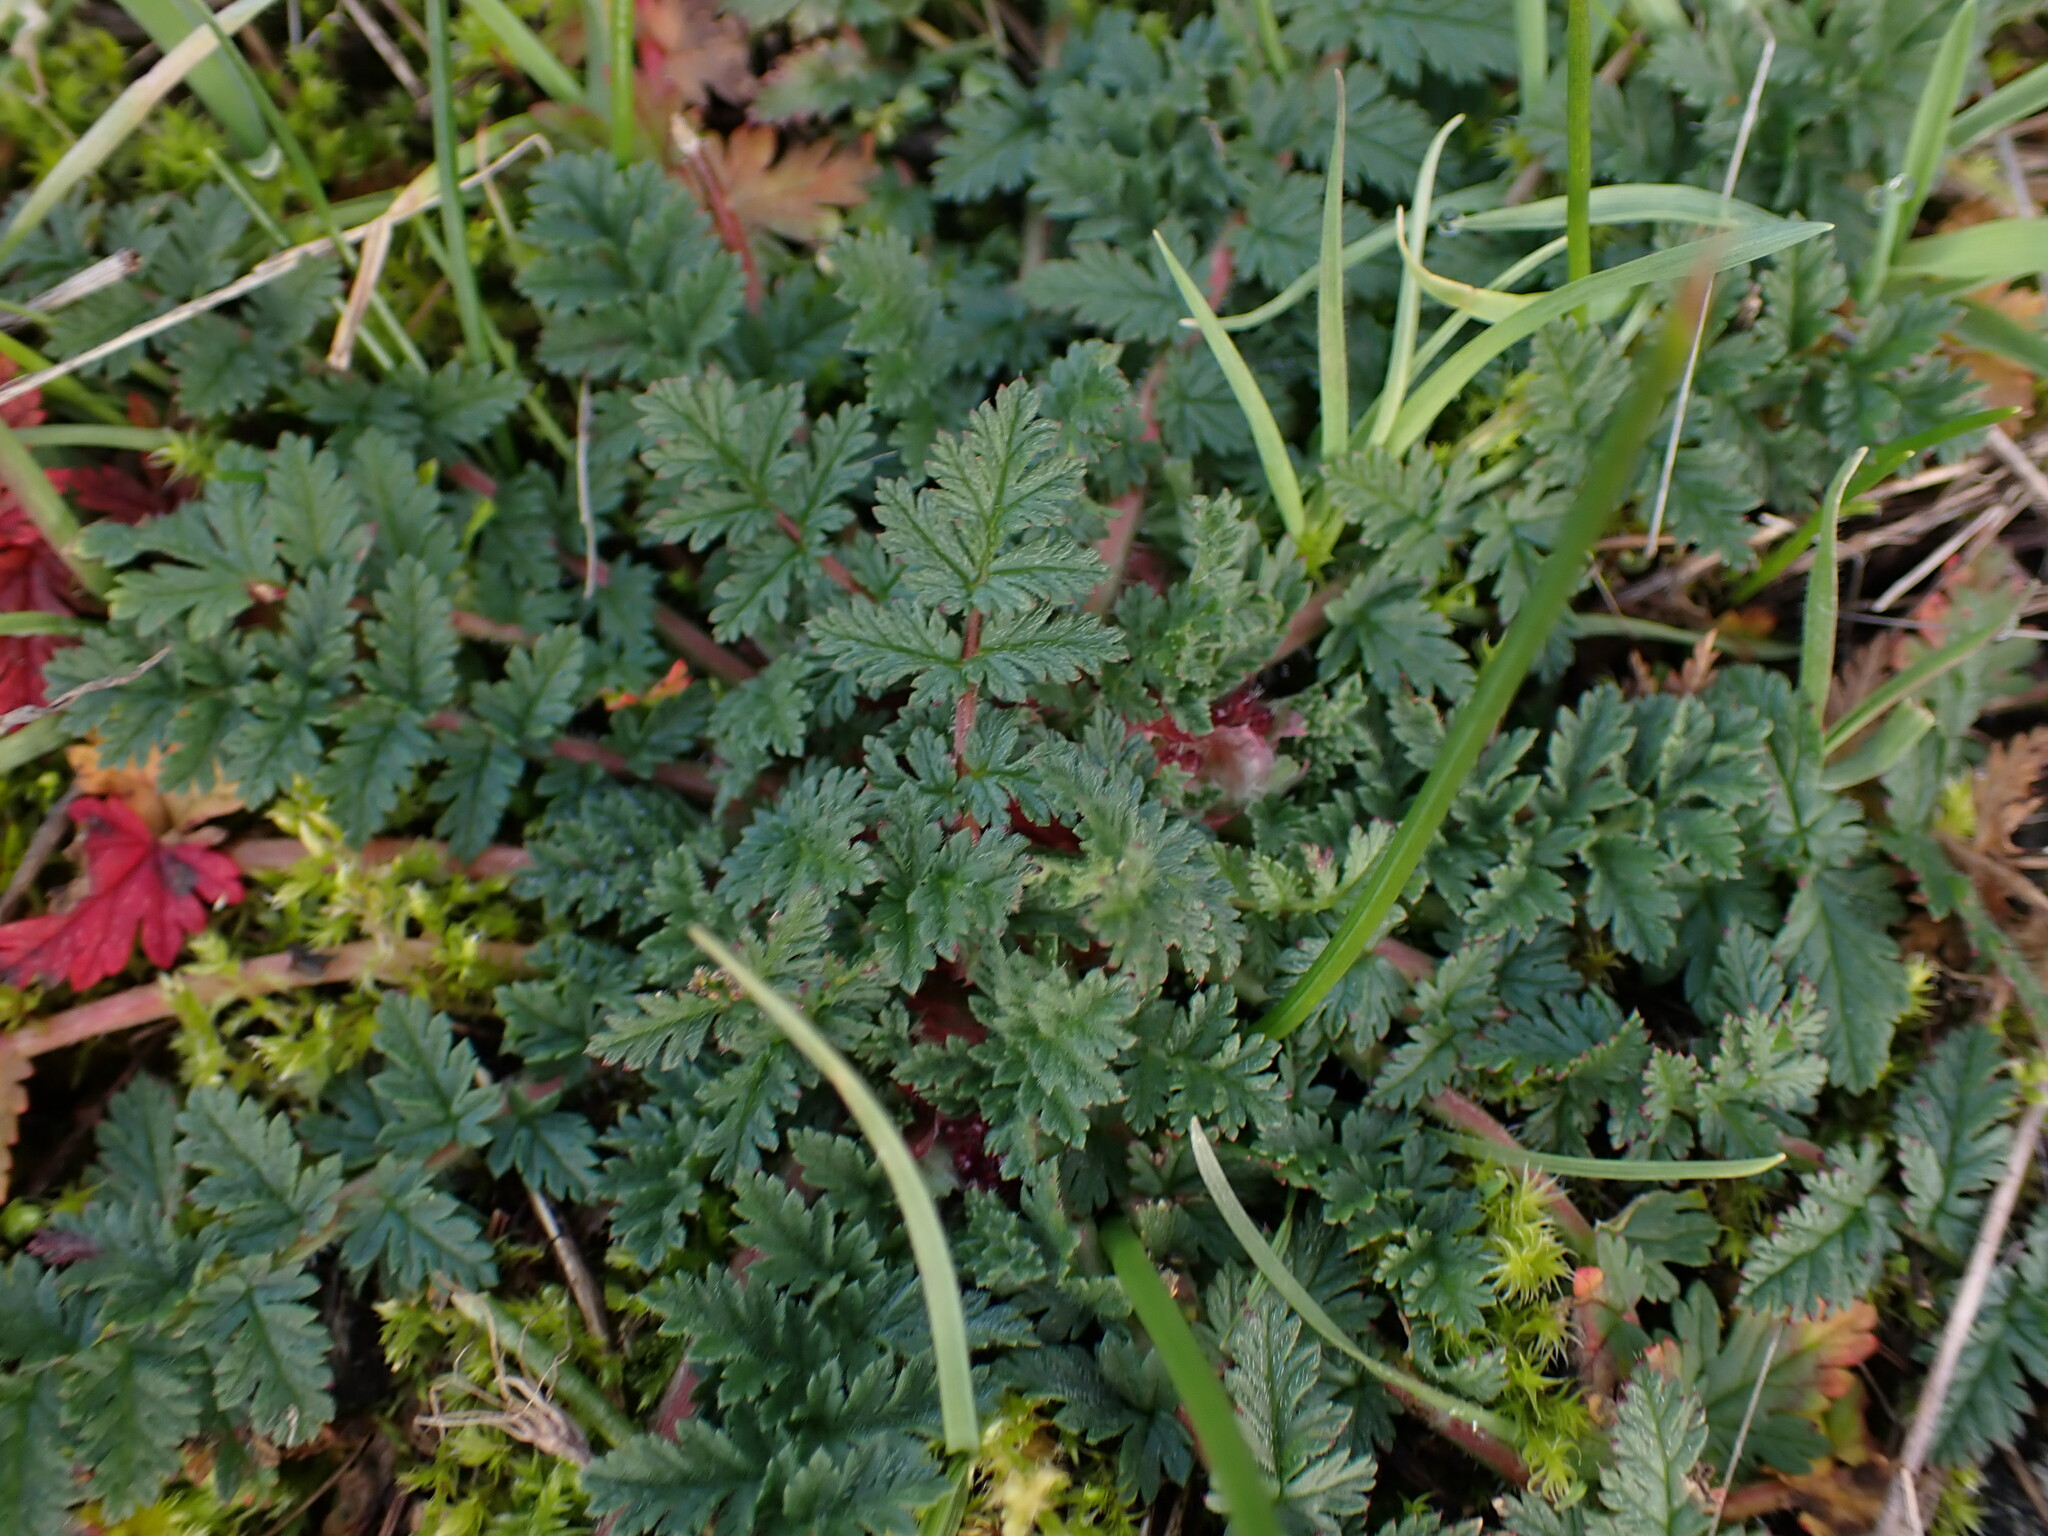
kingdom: Plantae
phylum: Tracheophyta
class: Magnoliopsida
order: Geraniales
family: Geraniaceae
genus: Erodium
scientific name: Erodium cicutarium
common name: Common stork's-bill
